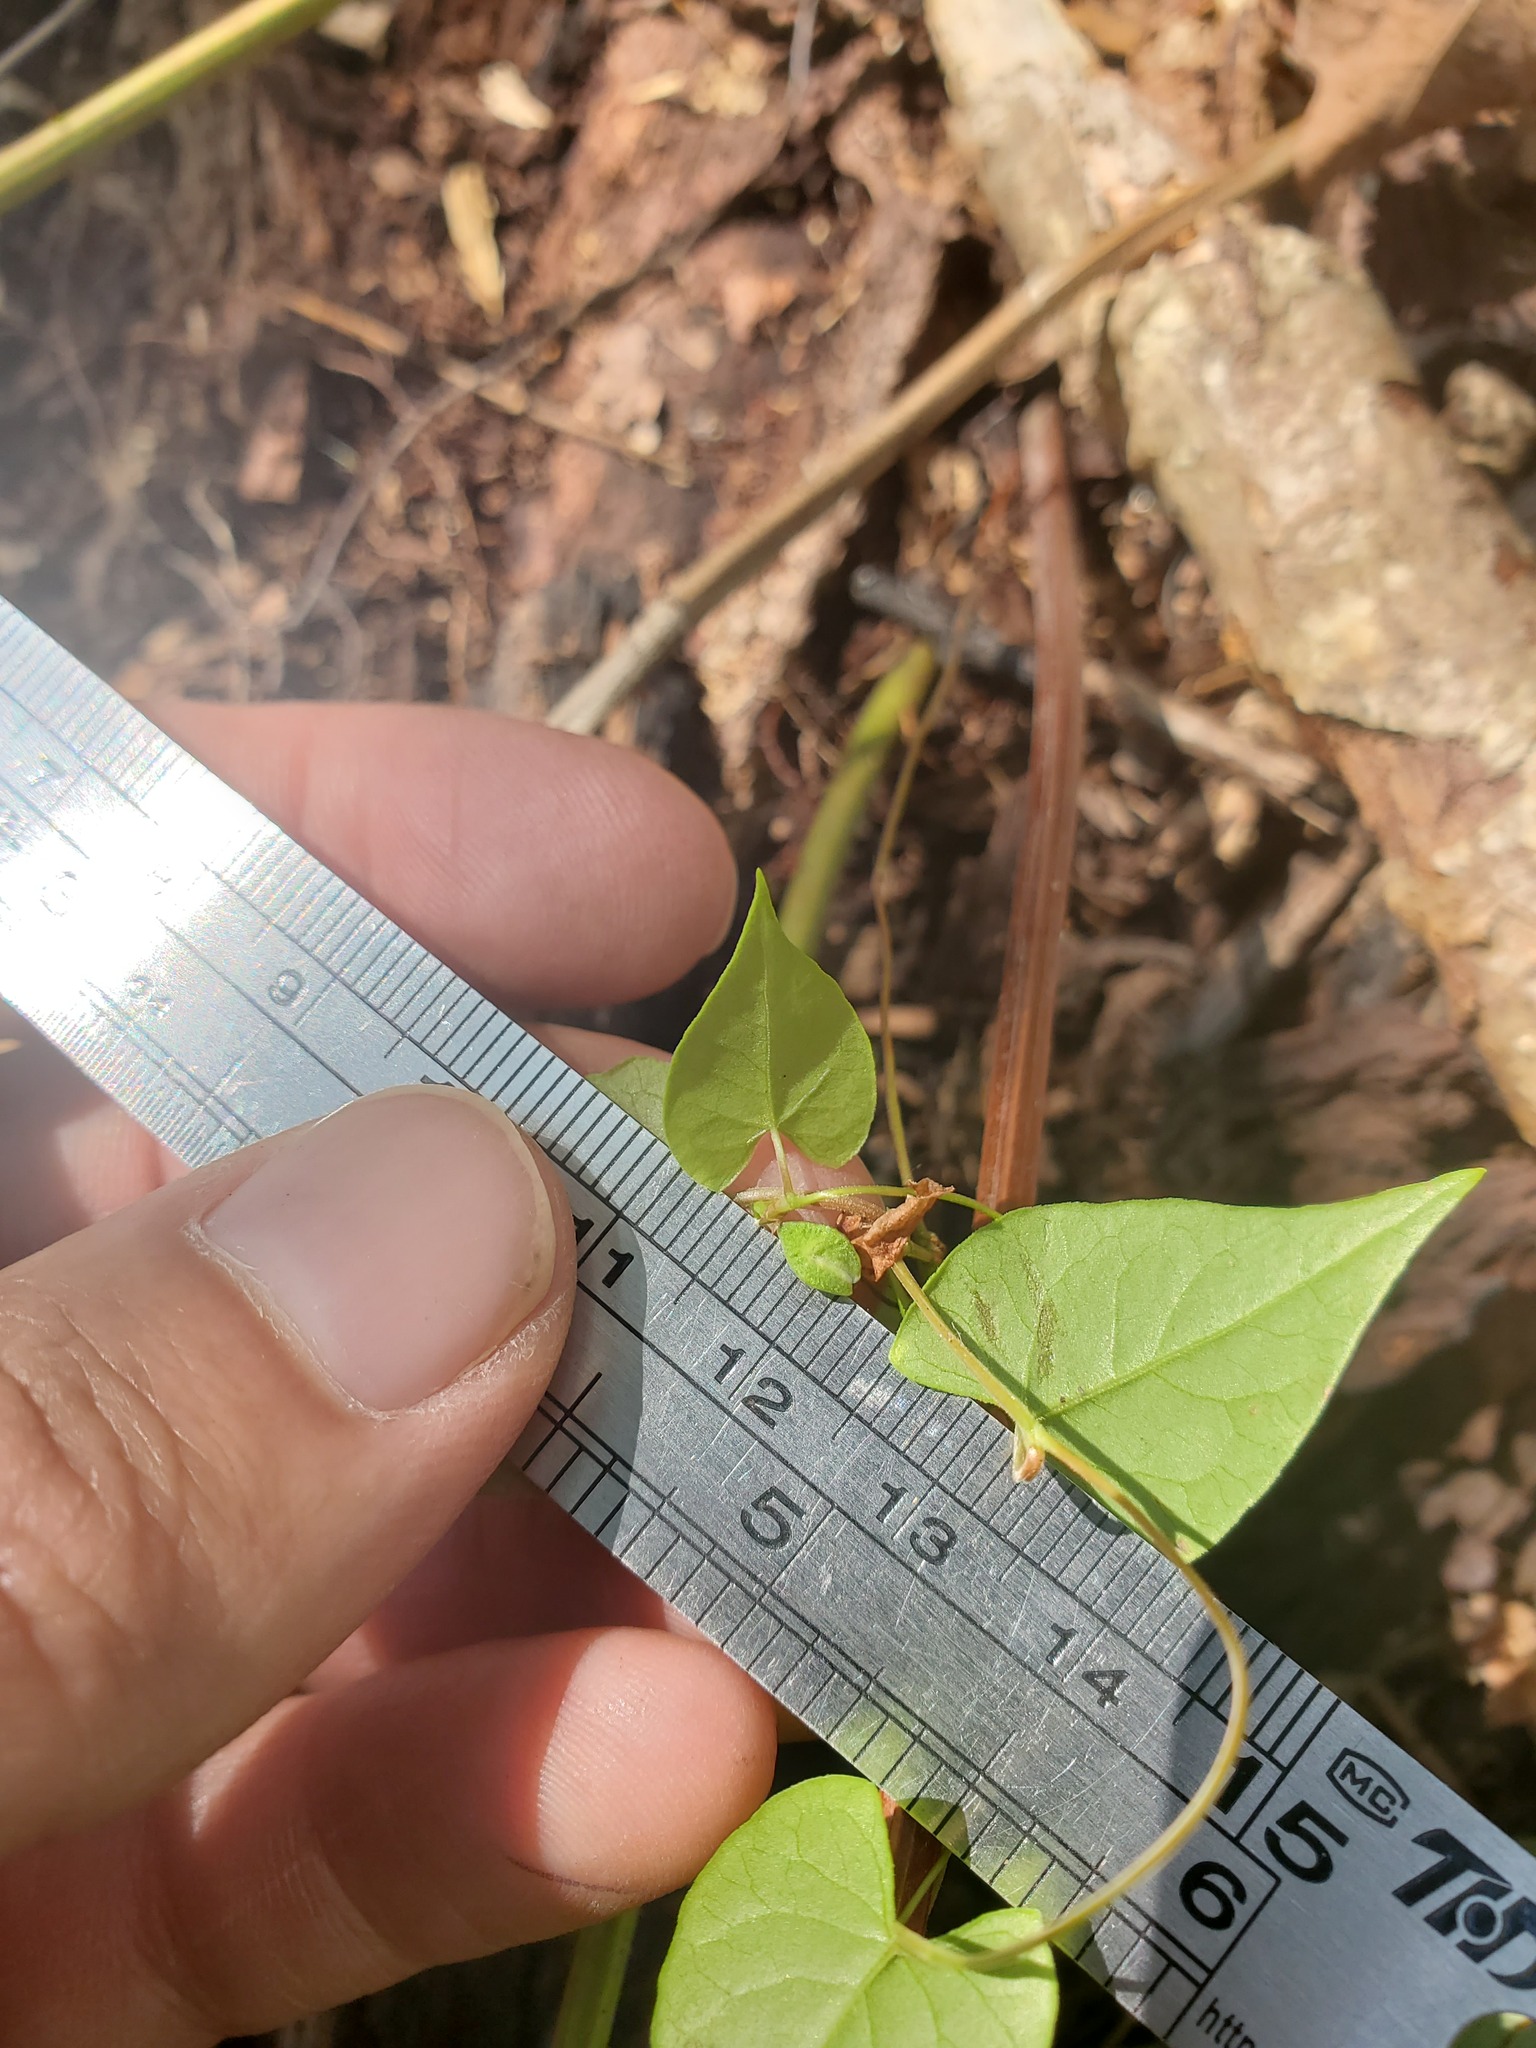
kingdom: Plantae
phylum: Tracheophyta
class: Magnoliopsida
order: Caryophyllales
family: Polygonaceae
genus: Fallopia
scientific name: Fallopia convolvulus
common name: Black bindweed
